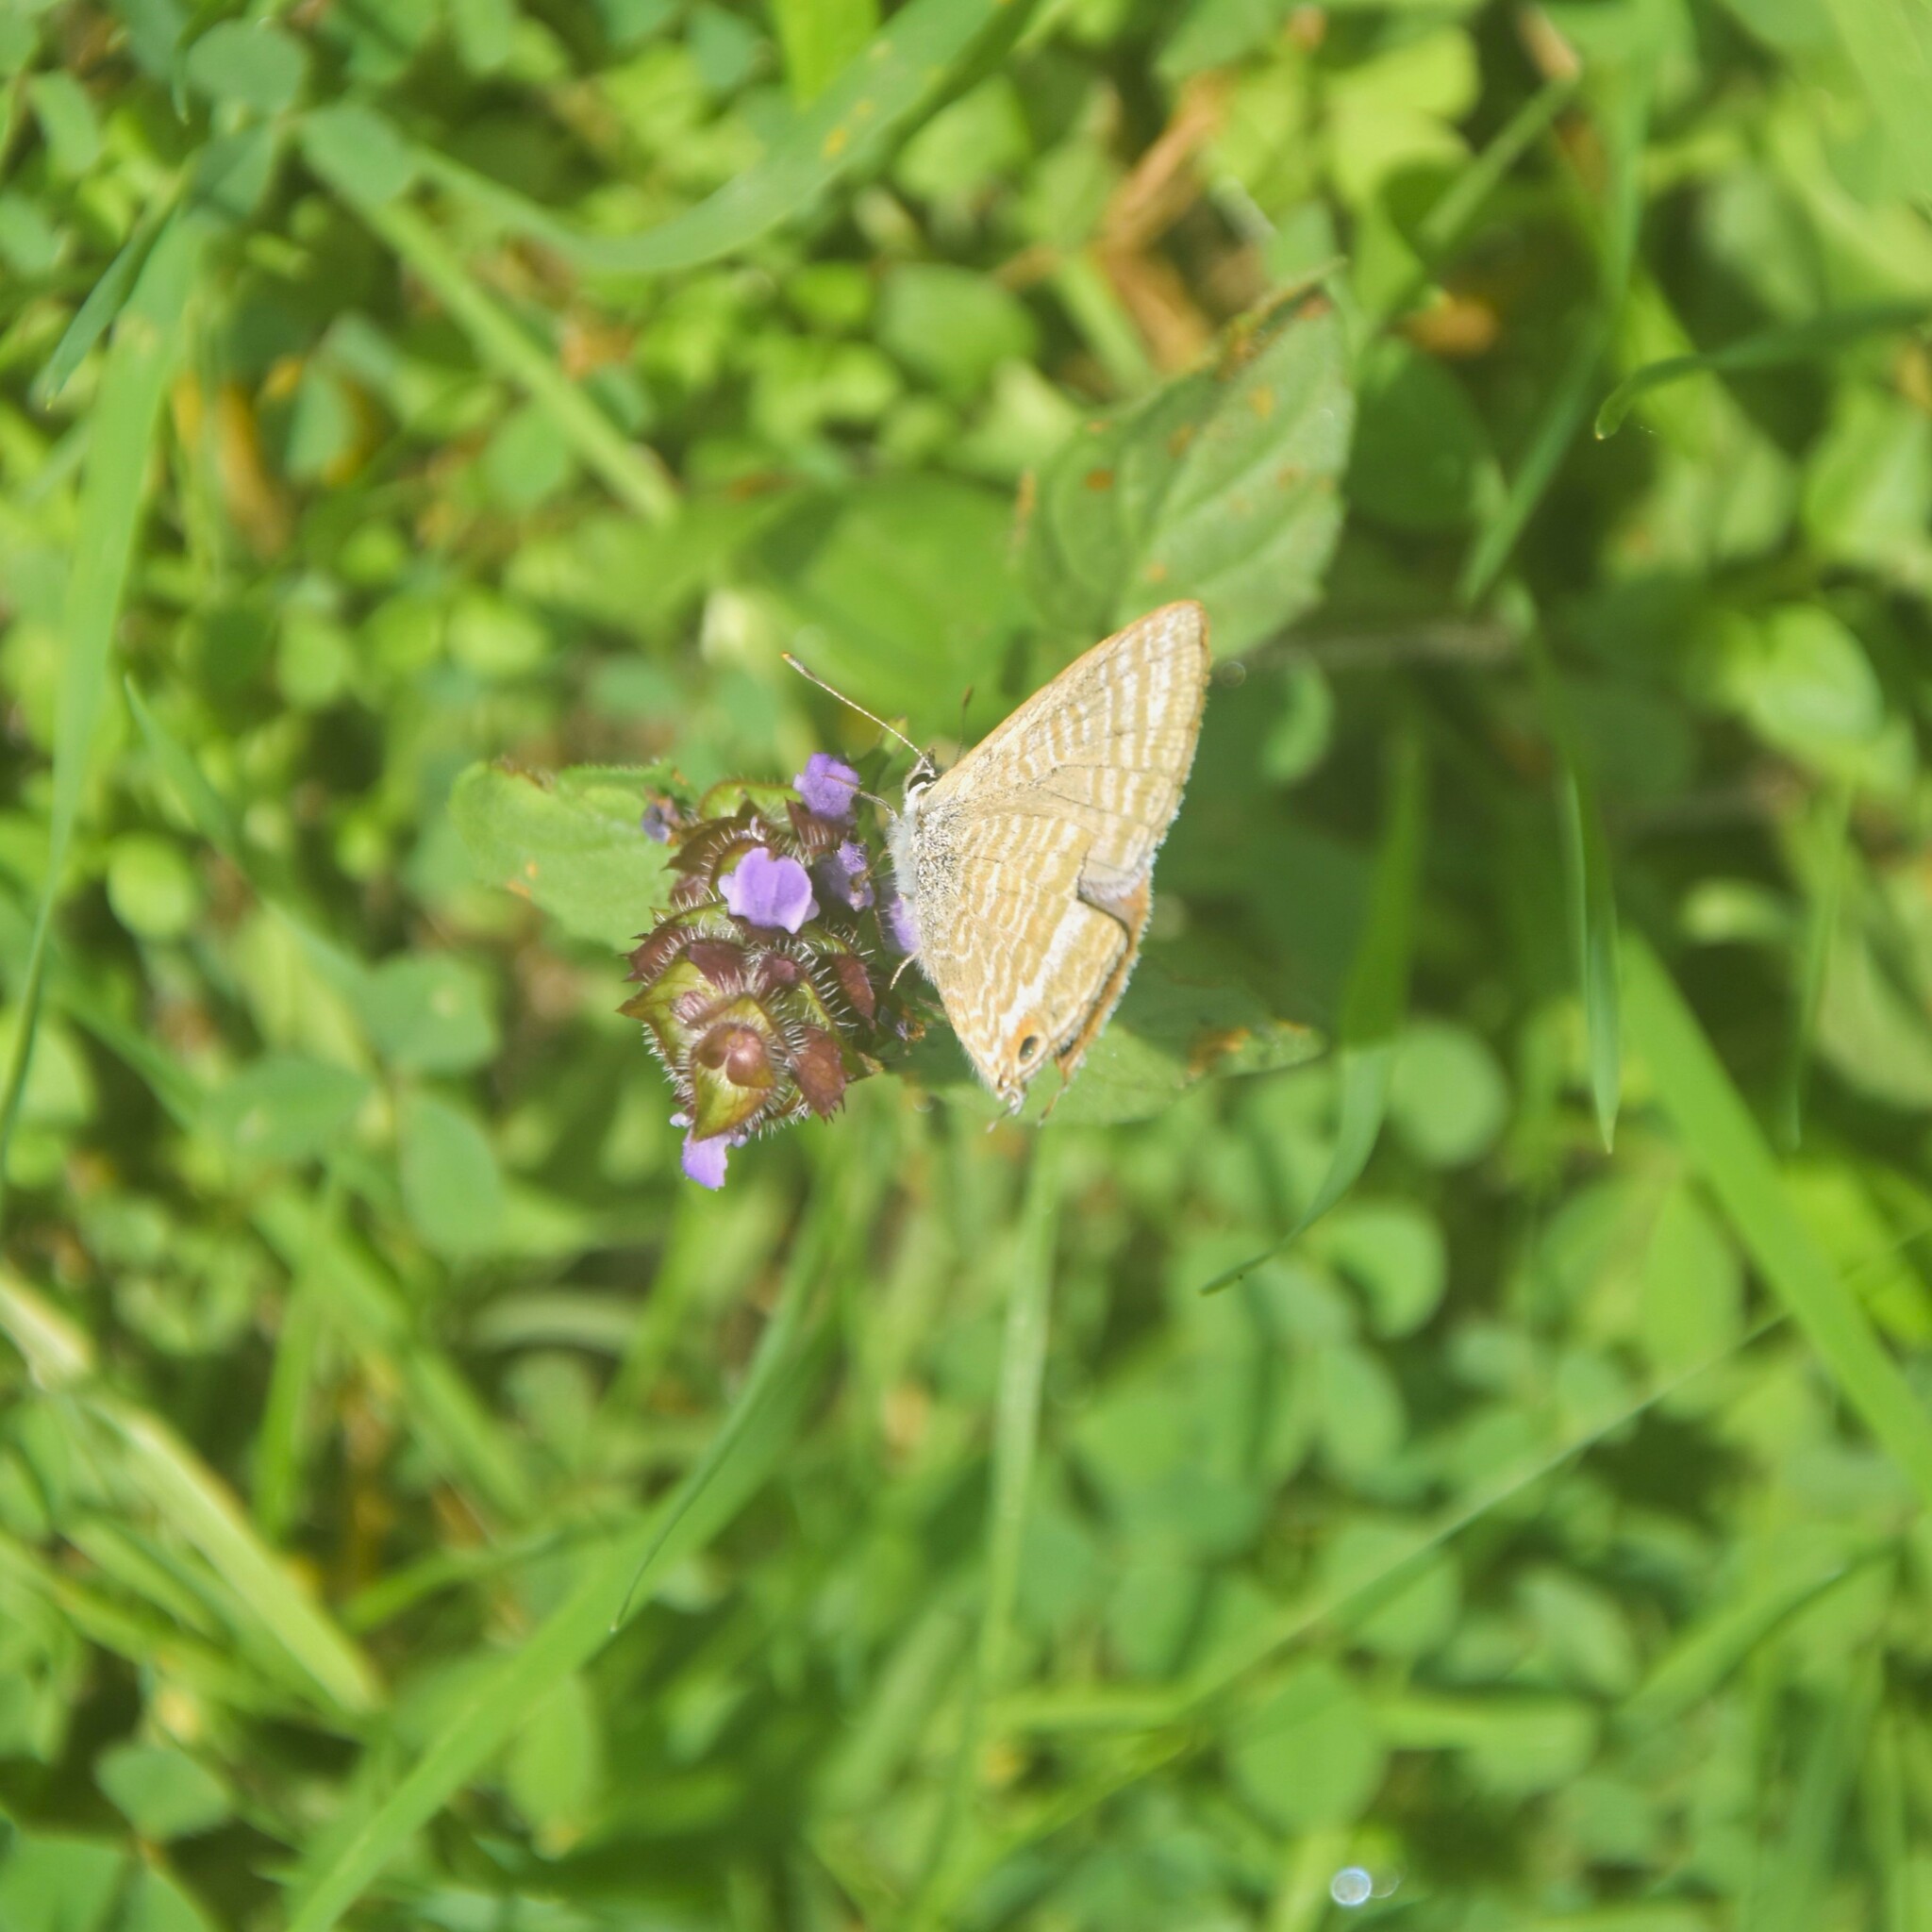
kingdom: Animalia
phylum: Arthropoda
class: Insecta
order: Lepidoptera
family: Lycaenidae
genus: Lampides
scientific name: Lampides boeticus
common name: Long-tailed blue
